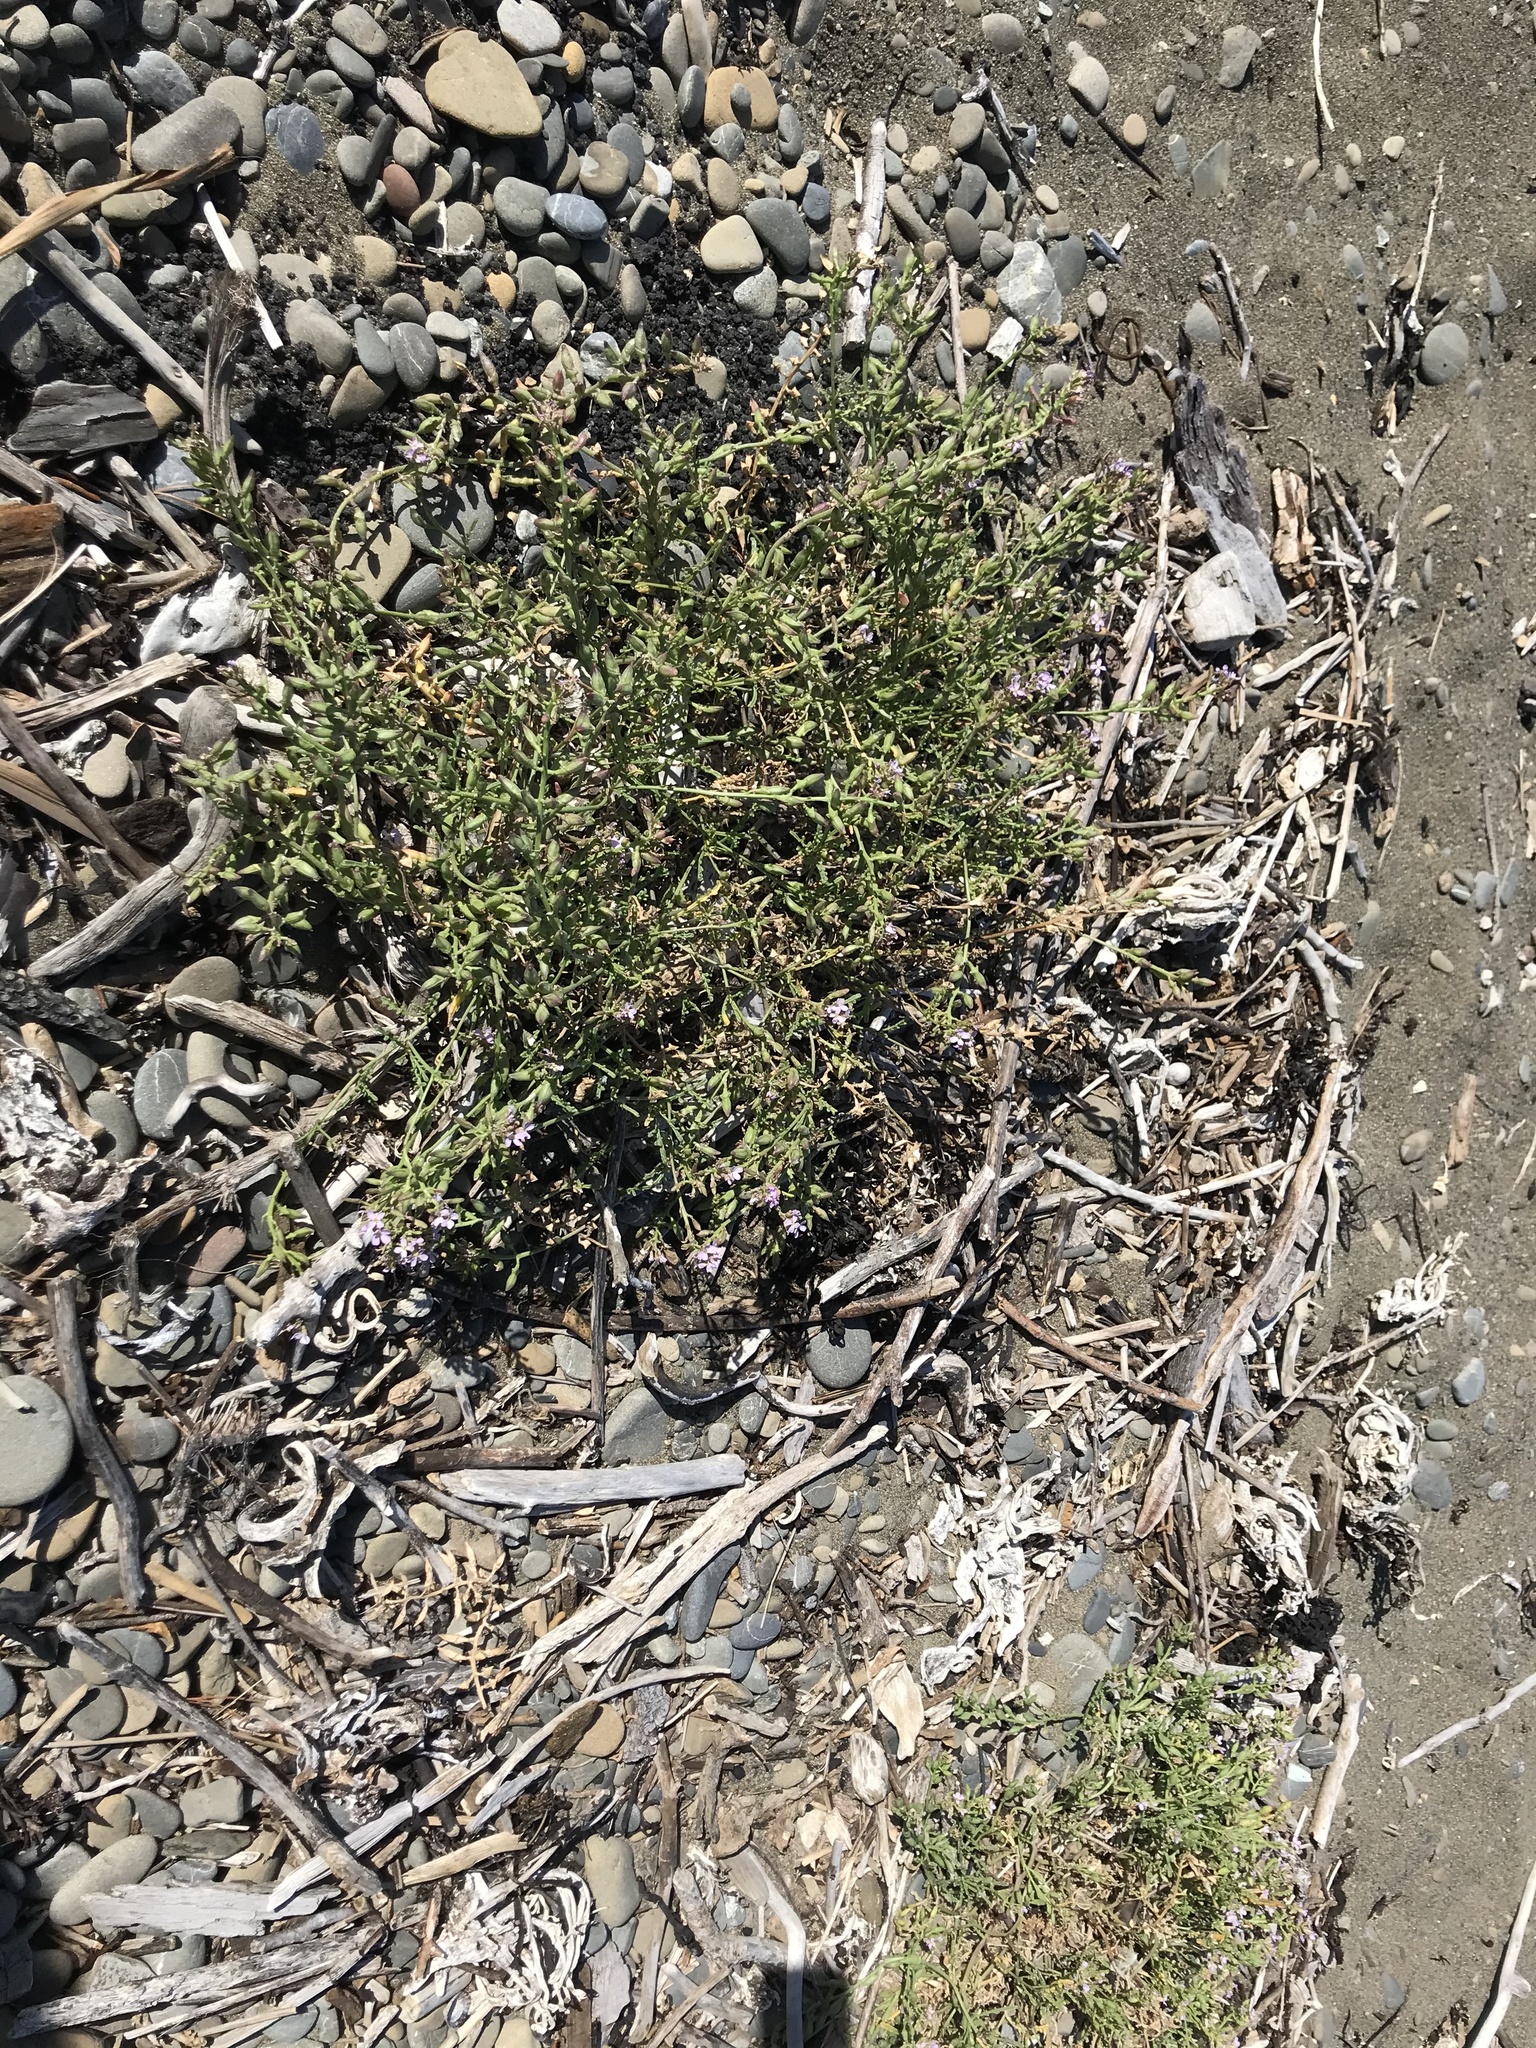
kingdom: Plantae
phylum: Tracheophyta
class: Magnoliopsida
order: Brassicales
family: Brassicaceae
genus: Cakile
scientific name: Cakile maritima
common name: Sea rocket
